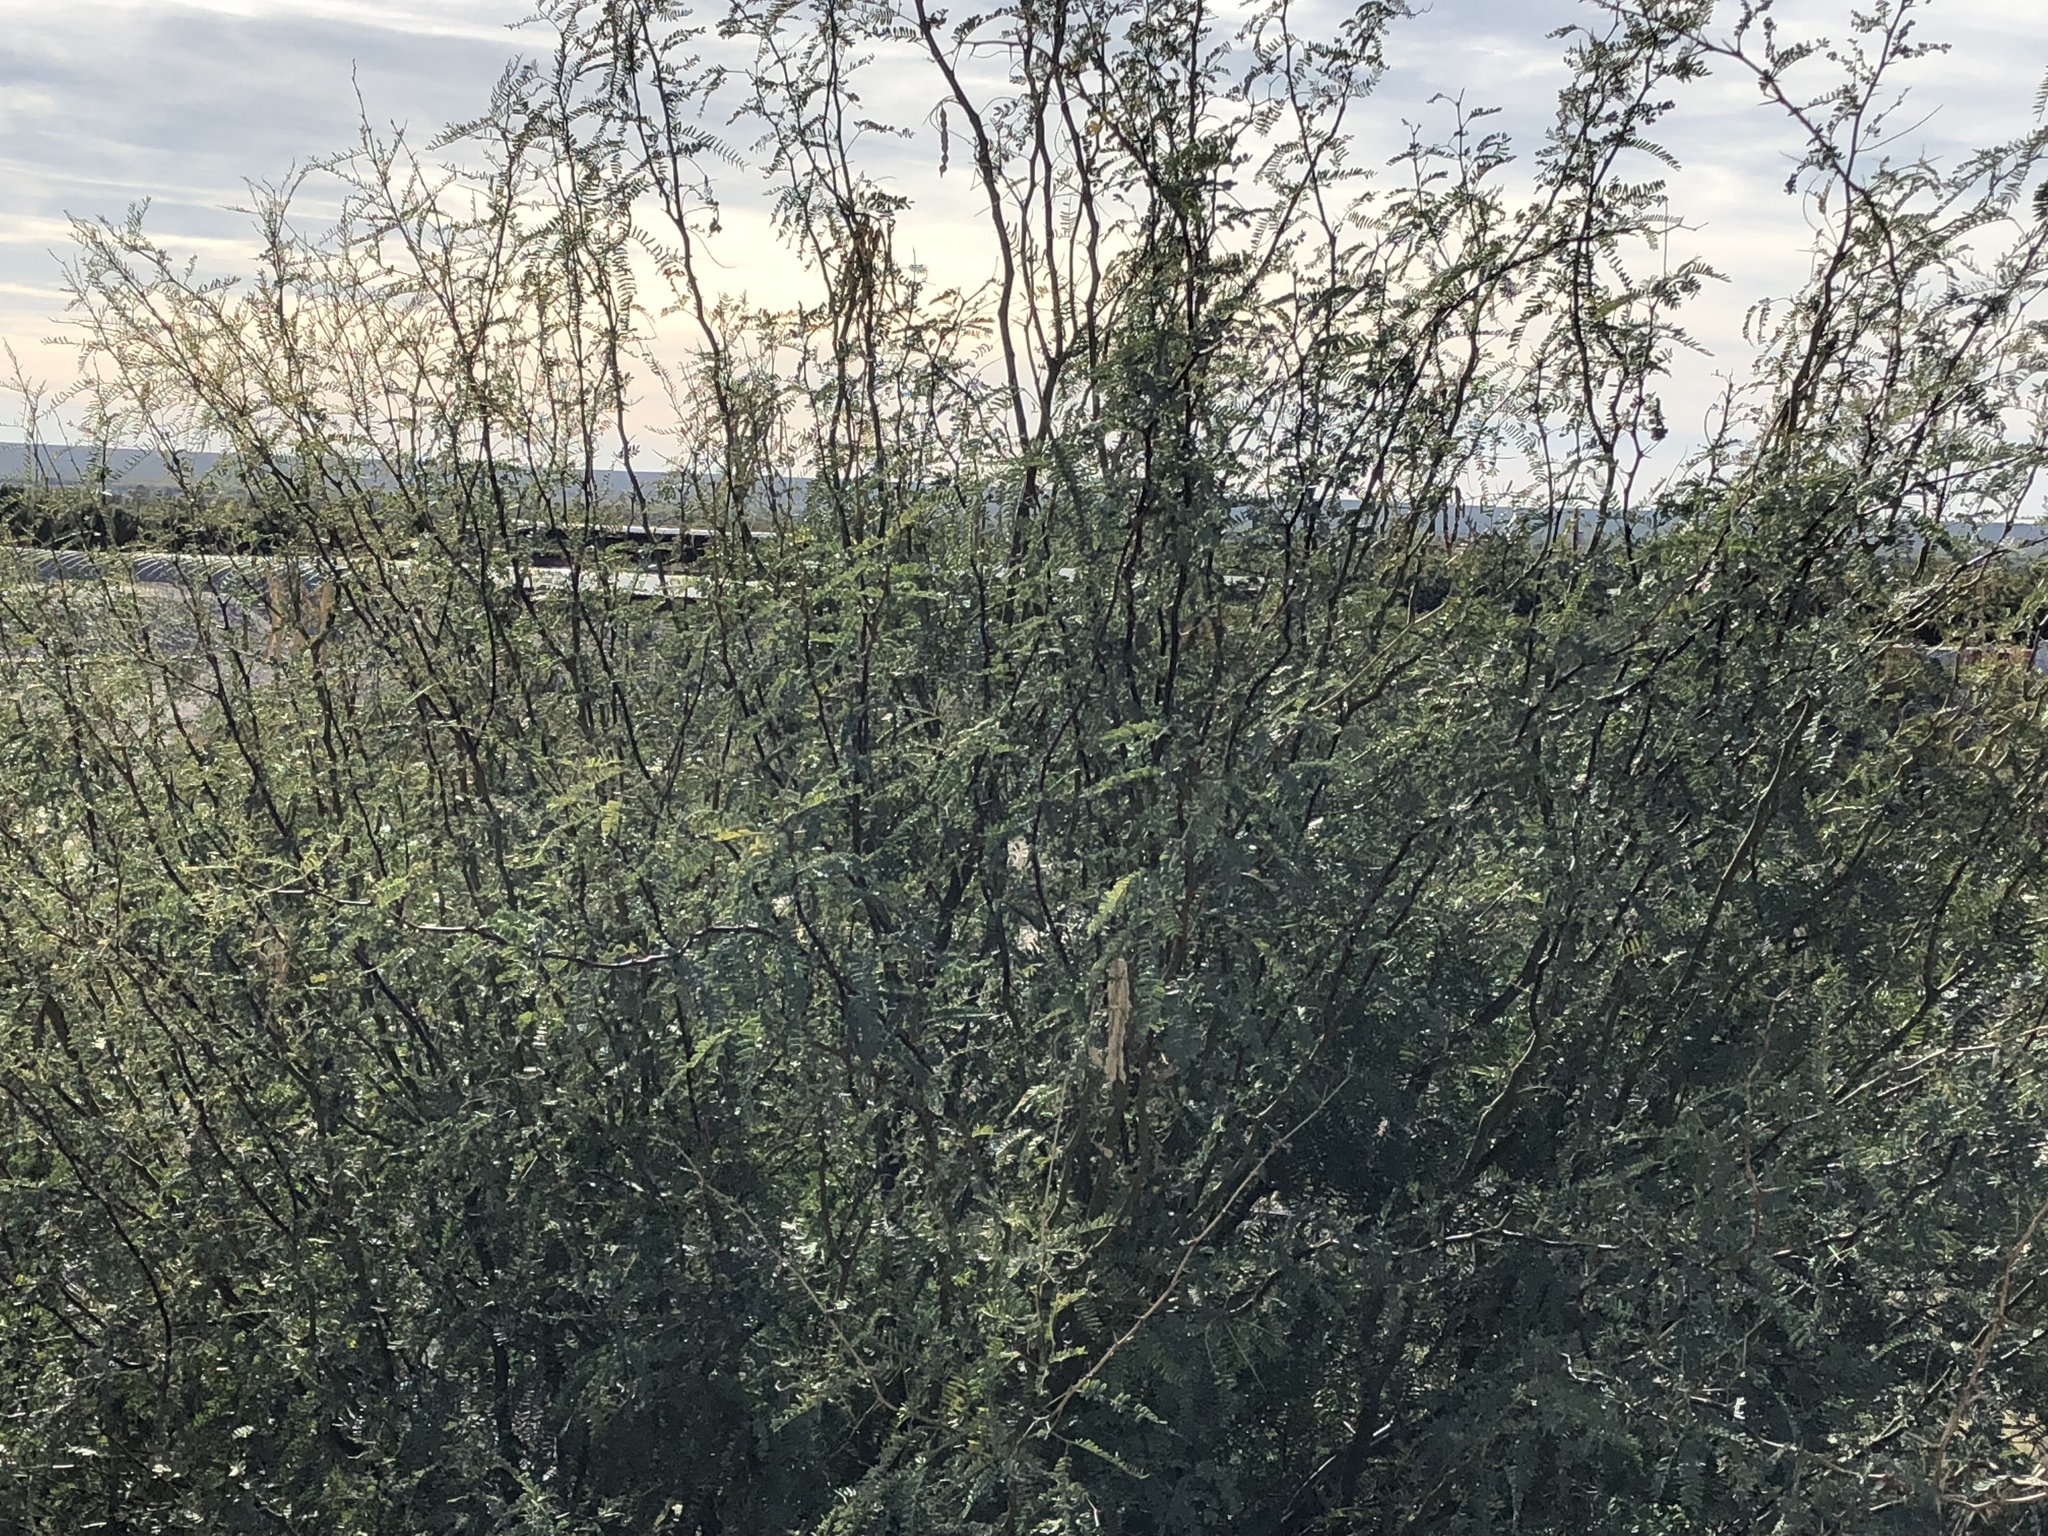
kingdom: Plantae
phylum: Tracheophyta
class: Magnoliopsida
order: Fabales
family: Fabaceae
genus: Prosopis
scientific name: Prosopis glandulosa
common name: Honey mesquite
